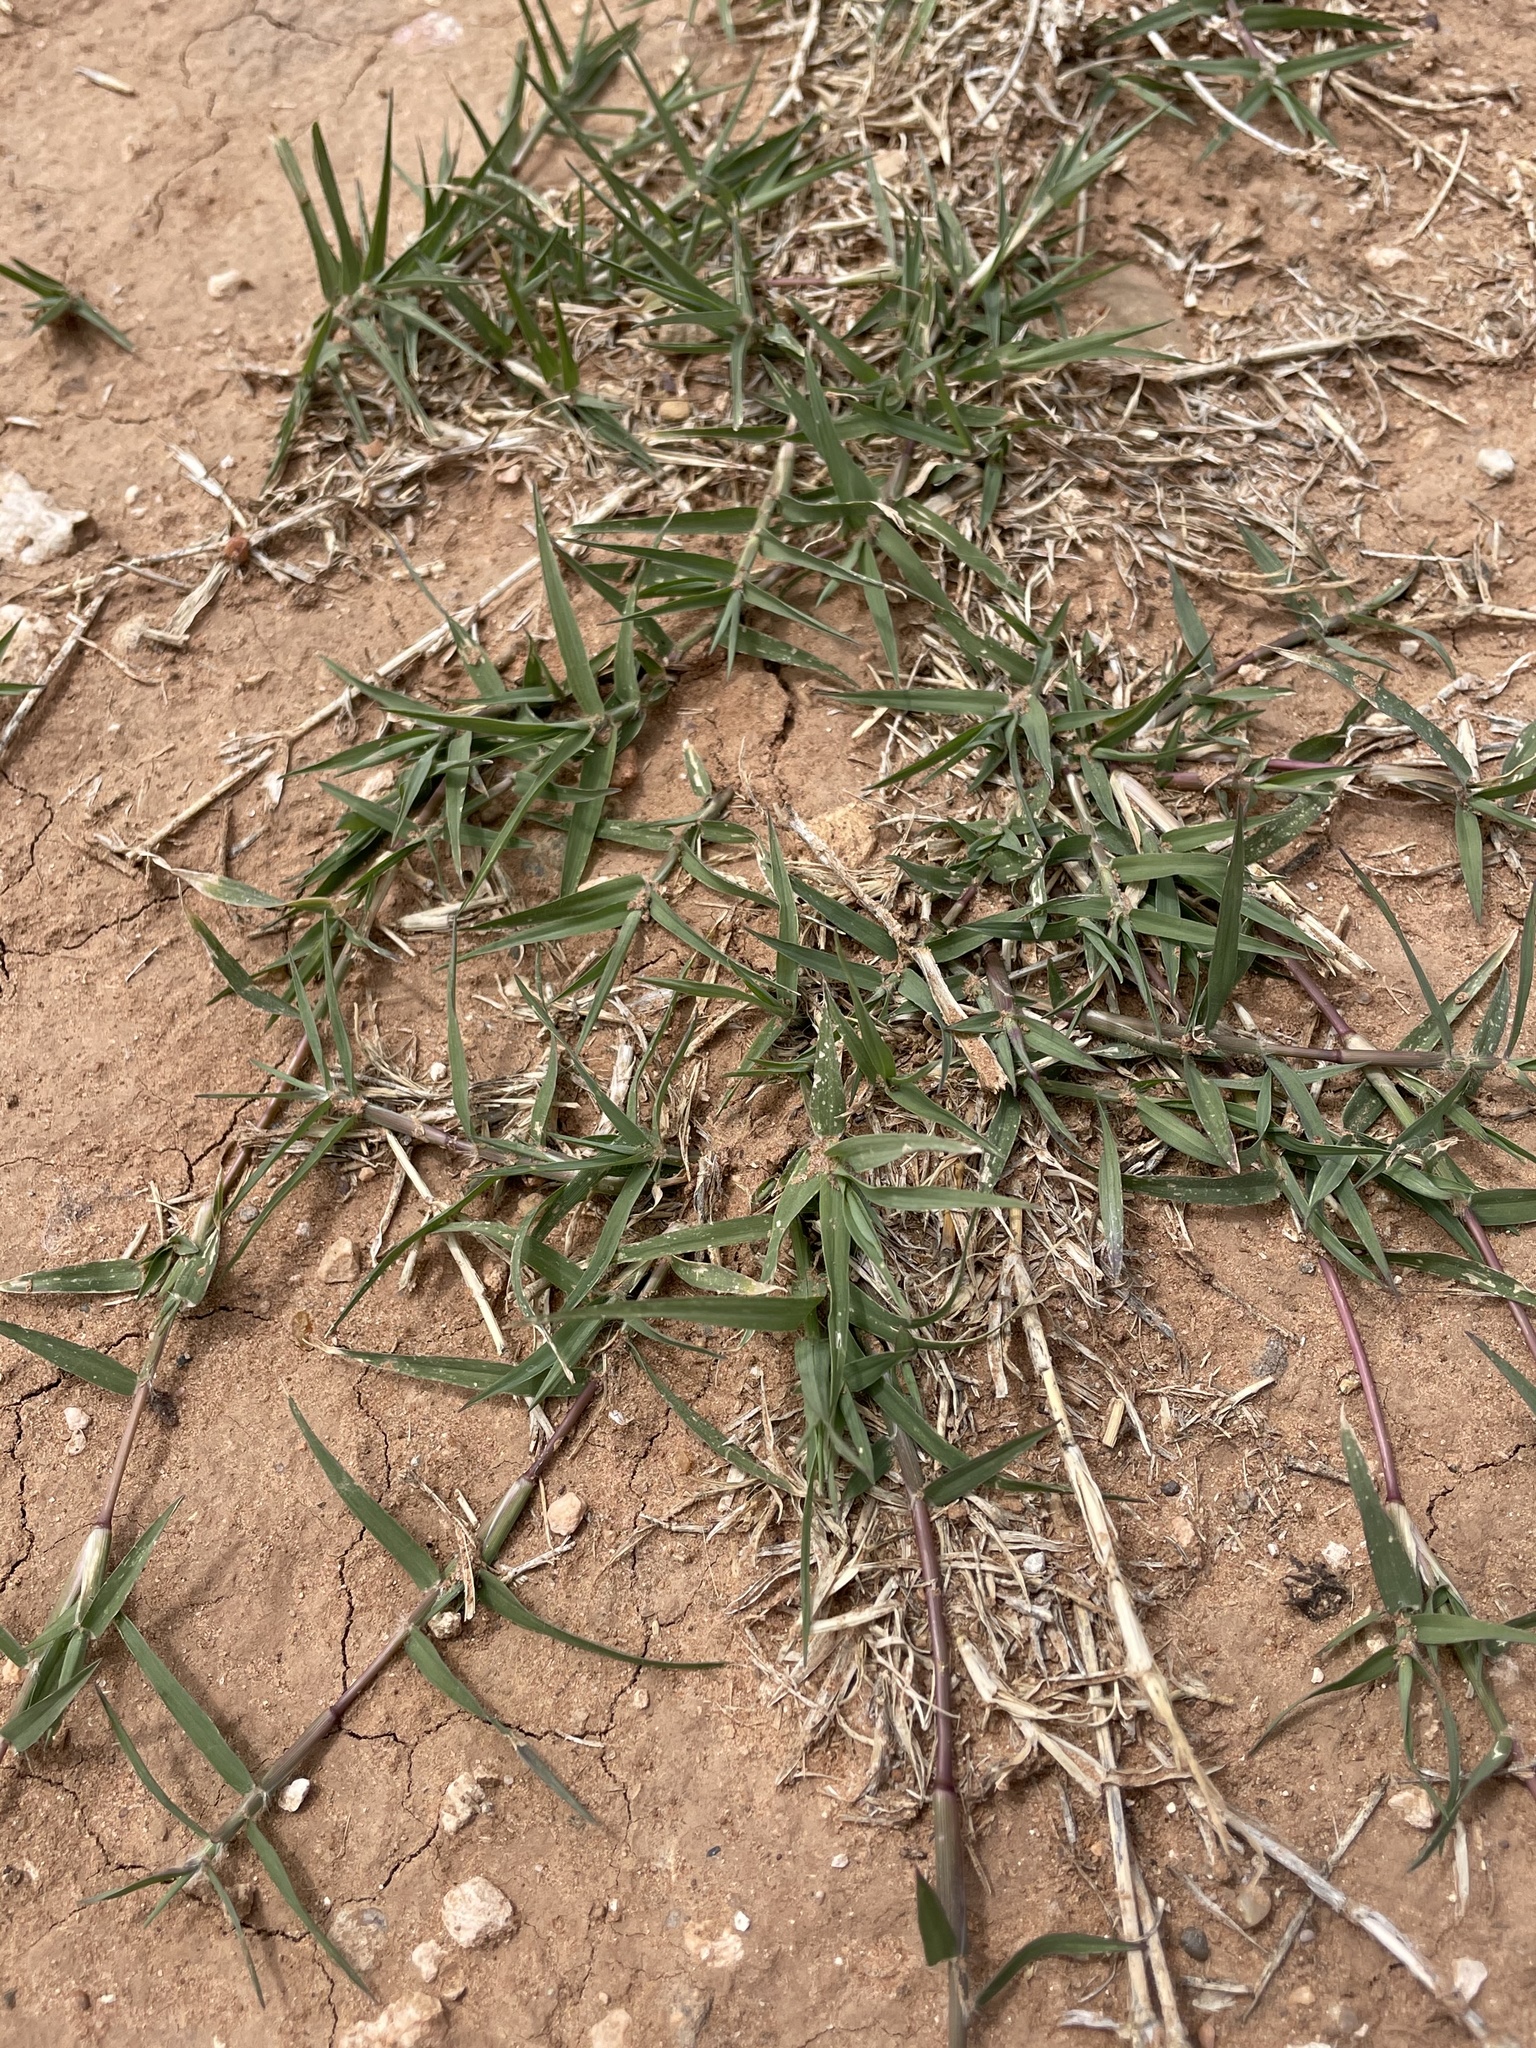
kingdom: Plantae
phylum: Tracheophyta
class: Liliopsida
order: Poales
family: Poaceae
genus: Cynodon
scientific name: Cynodon dactylon
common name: Bermuda grass
